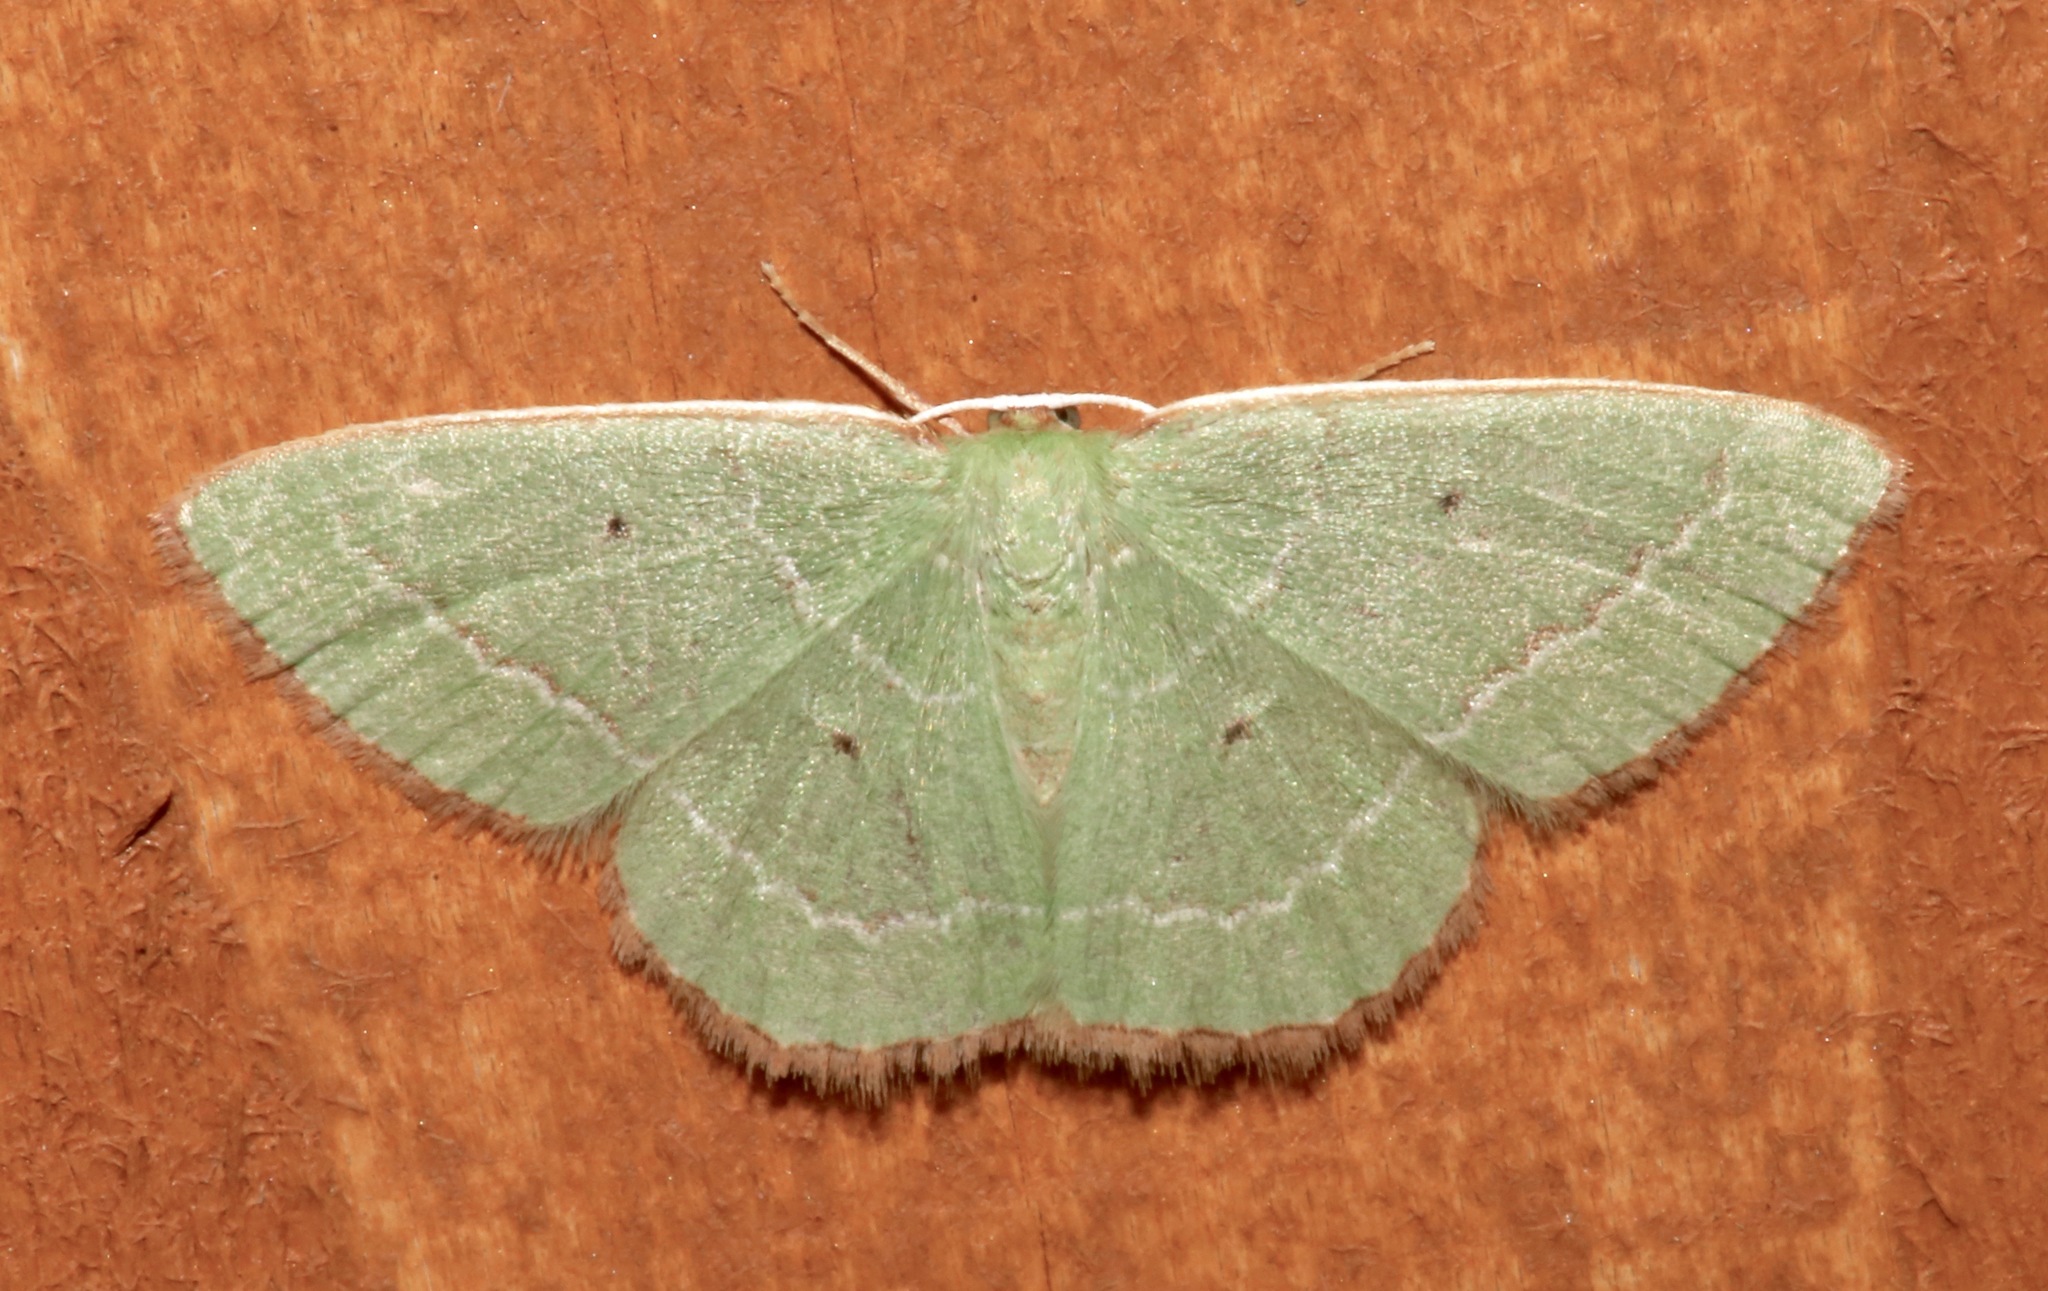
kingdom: Animalia
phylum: Arthropoda
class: Insecta
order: Lepidoptera
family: Geometridae
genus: Nemoria
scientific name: Nemoria elfa
